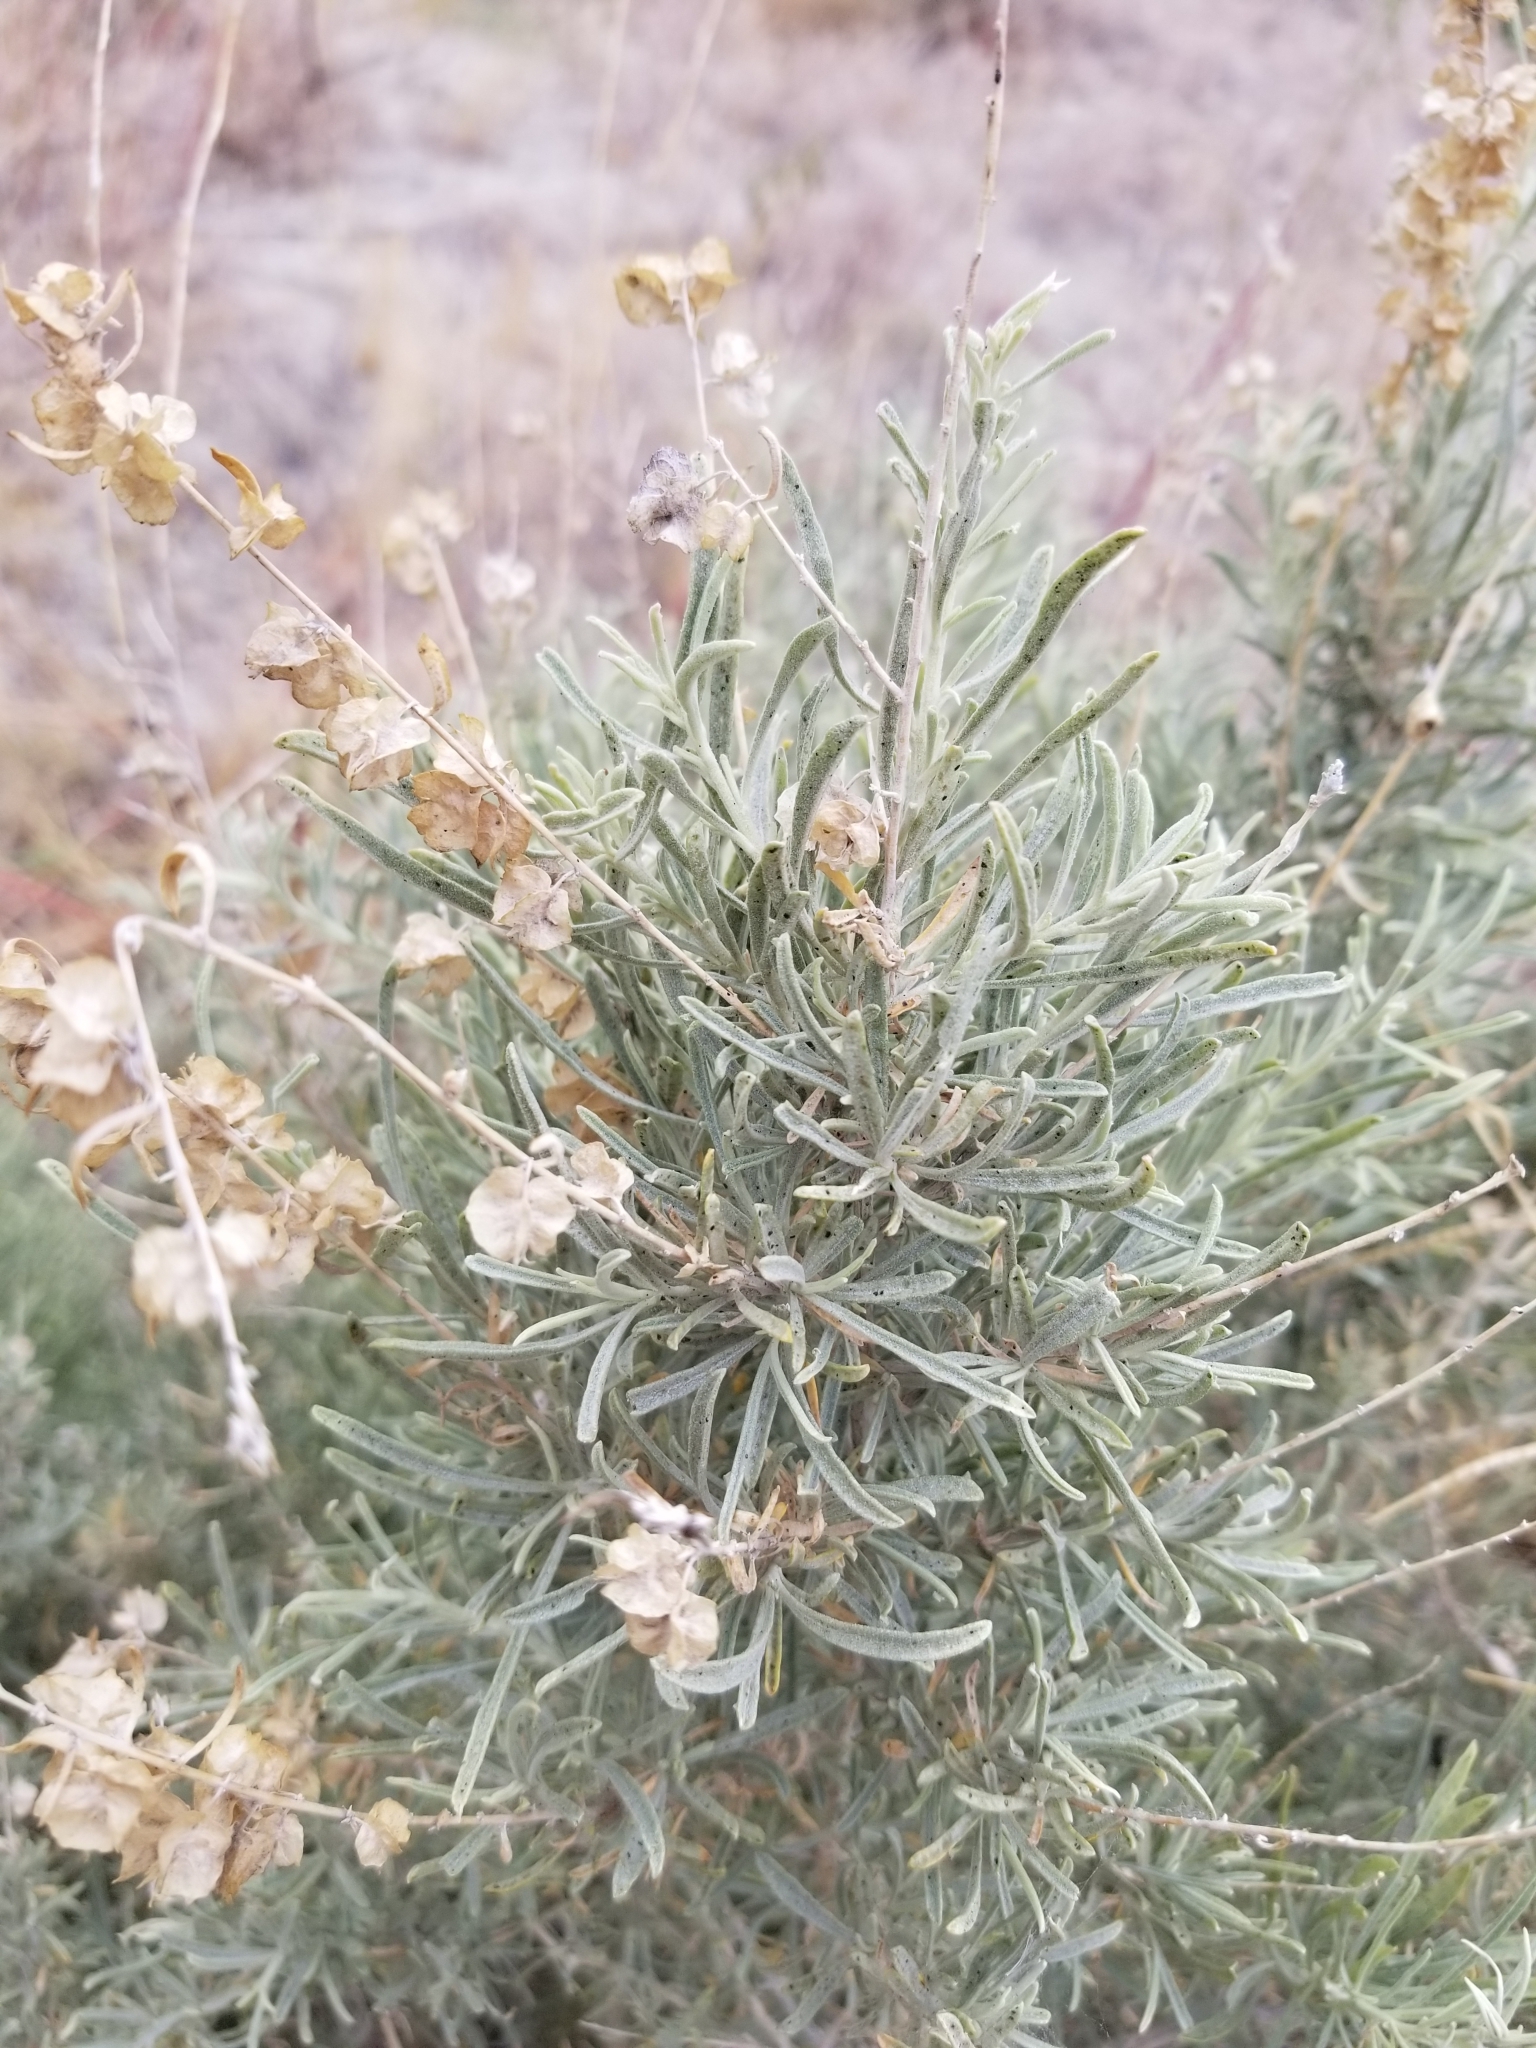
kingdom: Plantae
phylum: Tracheophyta
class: Magnoliopsida
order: Caryophyllales
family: Amaranthaceae
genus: Atriplex
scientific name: Atriplex canescens
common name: Four-wing saltbush
